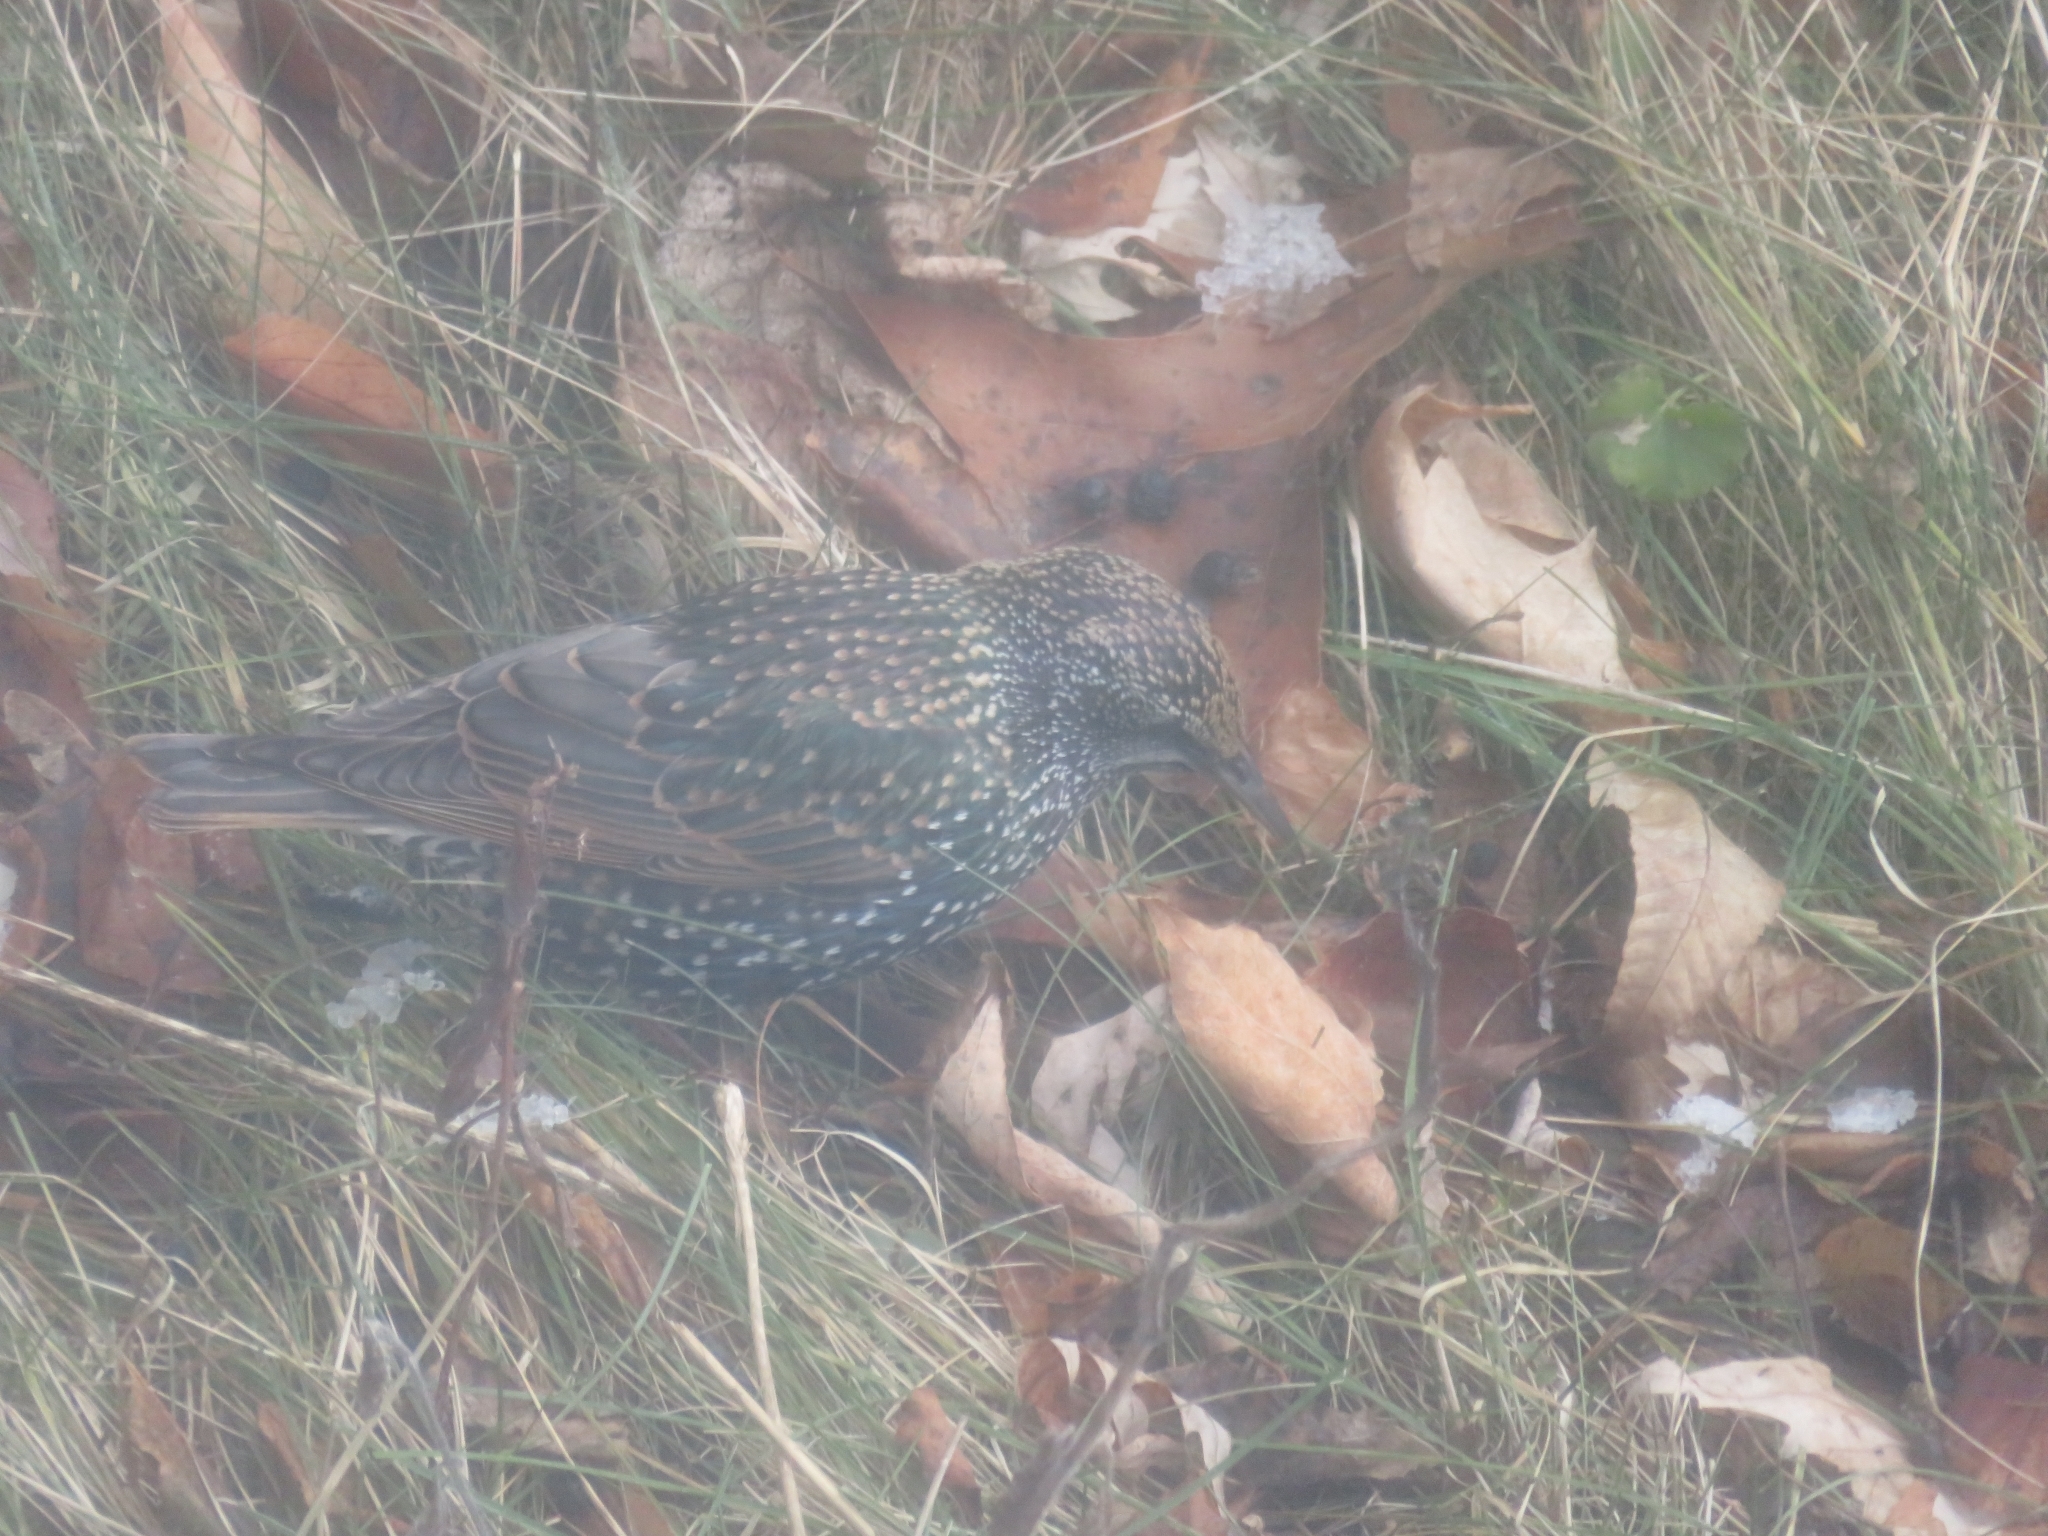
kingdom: Animalia
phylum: Chordata
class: Aves
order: Passeriformes
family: Sturnidae
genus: Sturnus
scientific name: Sturnus vulgaris
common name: Common starling
